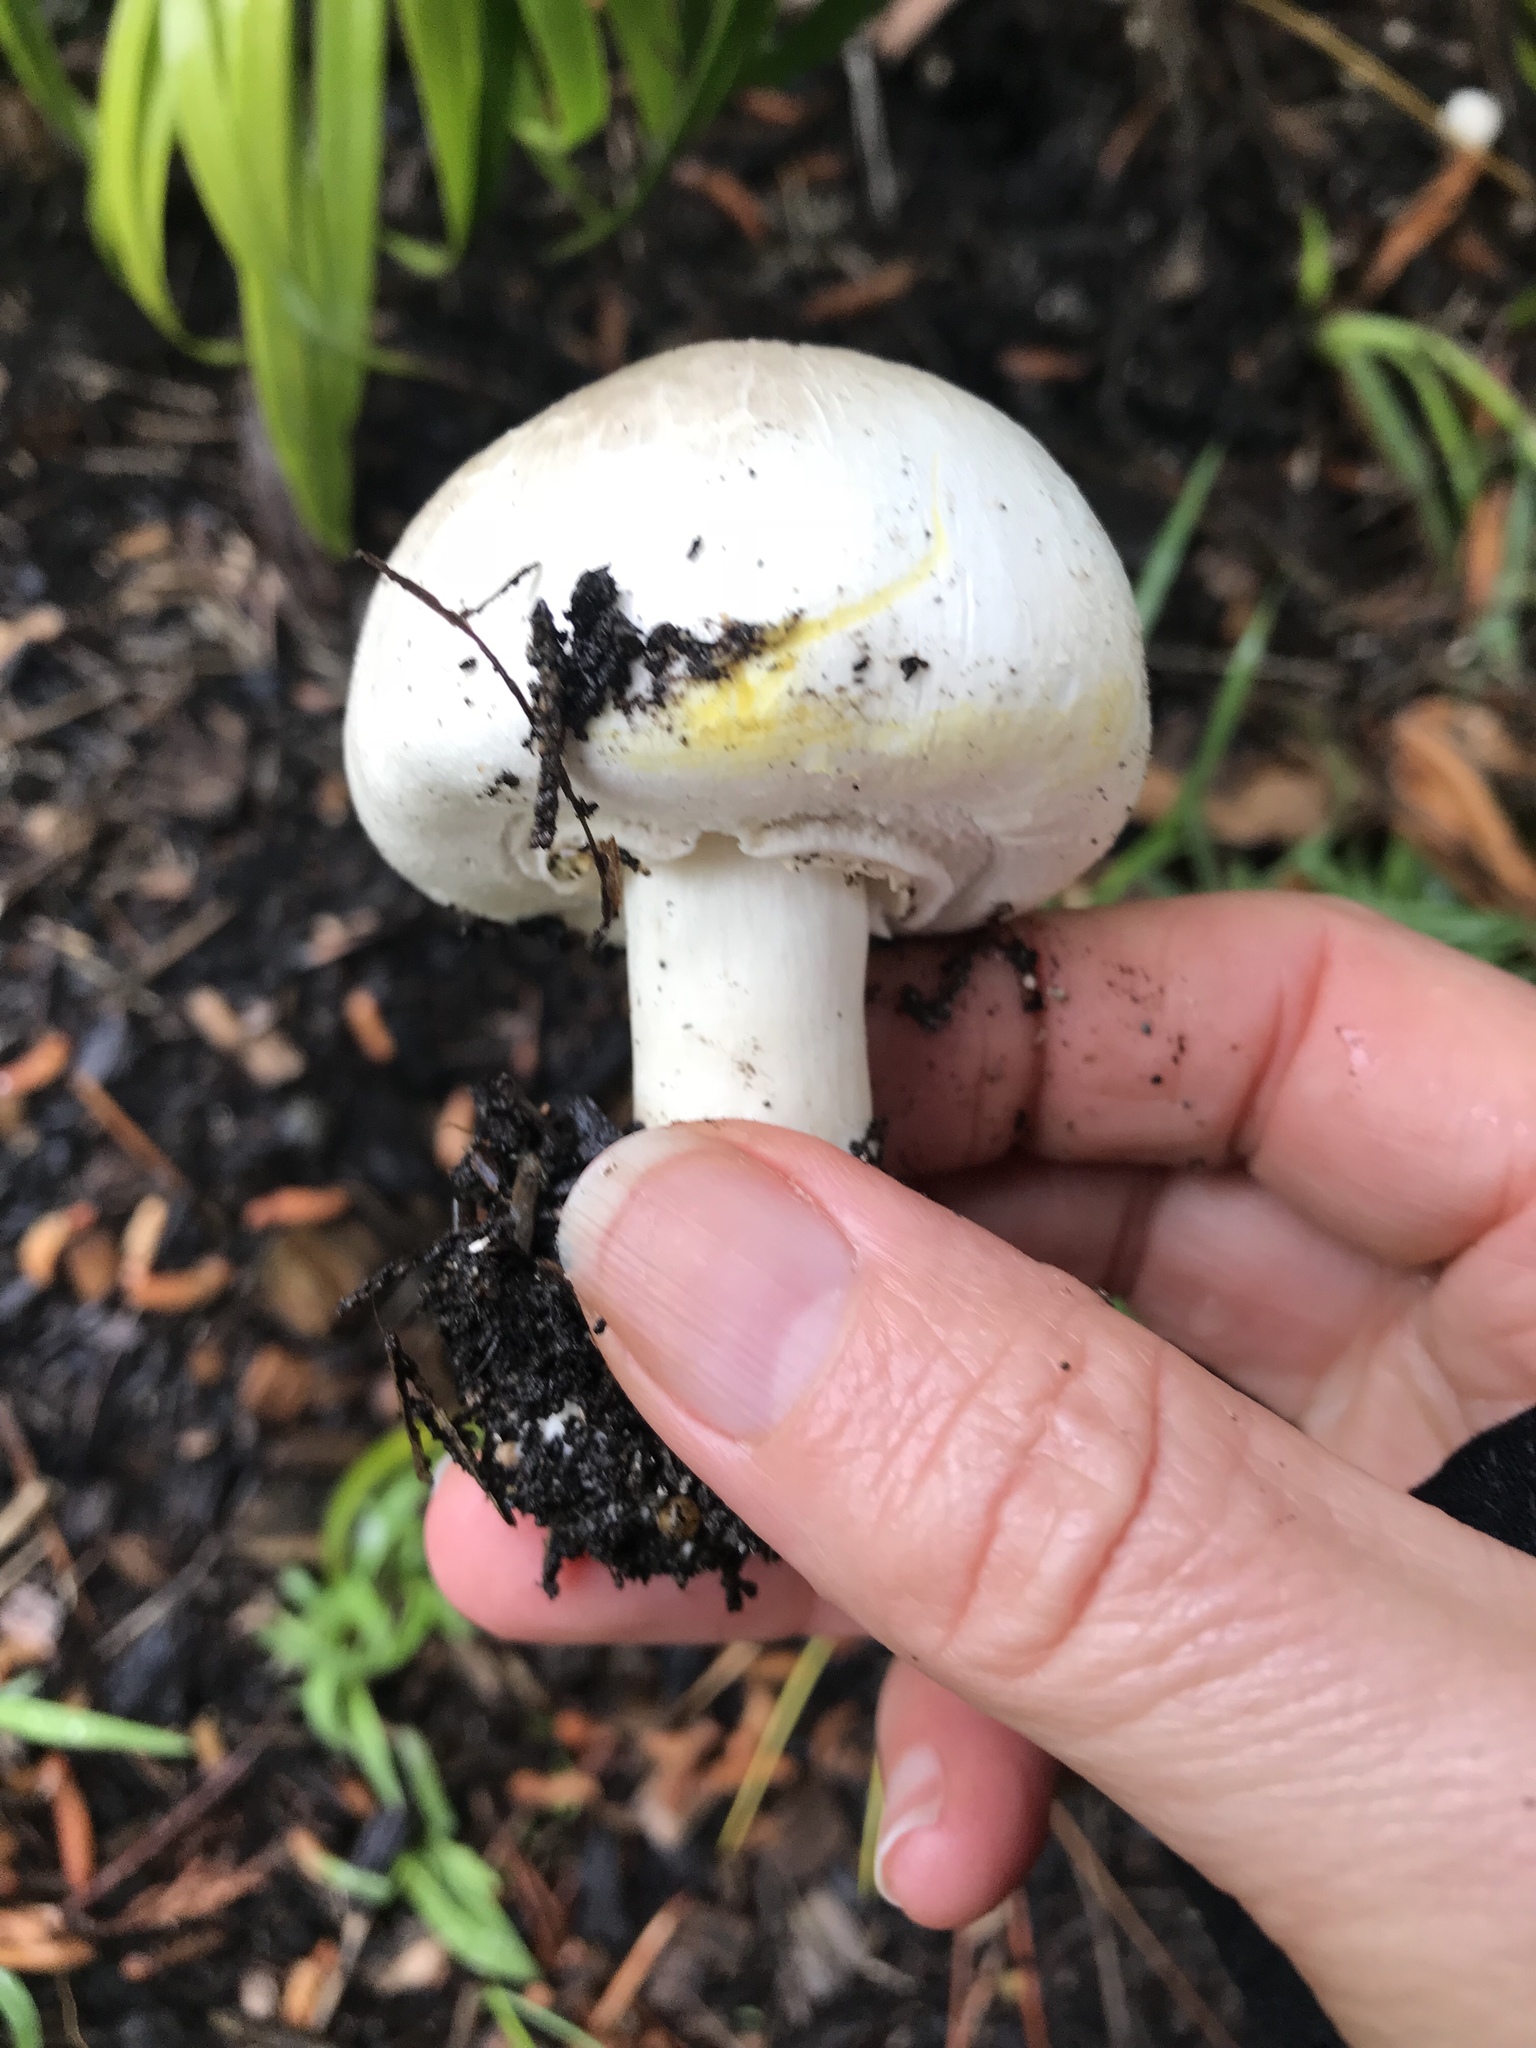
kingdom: Fungi
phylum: Basidiomycota
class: Agaricomycetes
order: Agaricales
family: Agaricaceae
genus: Agaricus
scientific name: Agaricus xanthodermus
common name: Yellow stainer
